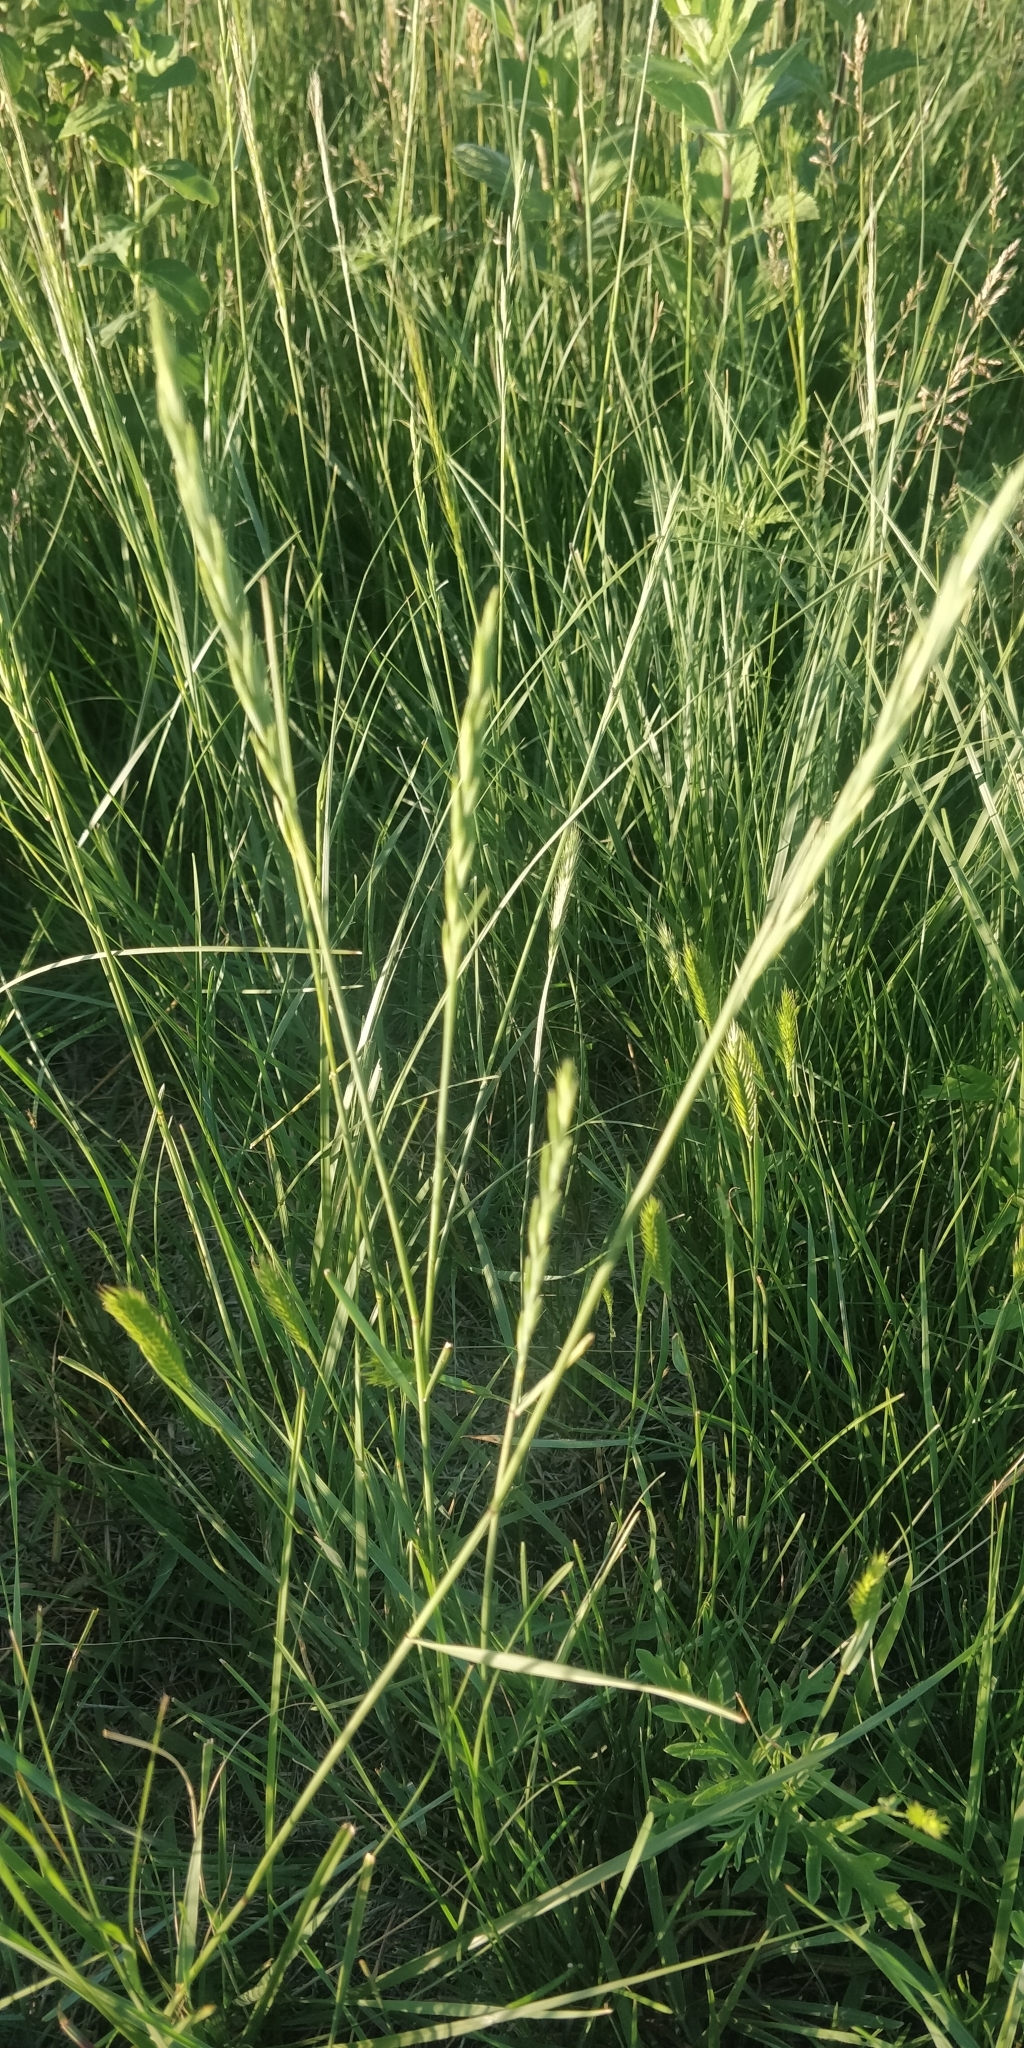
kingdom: Plantae
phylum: Tracheophyta
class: Liliopsida
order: Poales
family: Poaceae
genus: Elymus
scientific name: Elymus smithii
